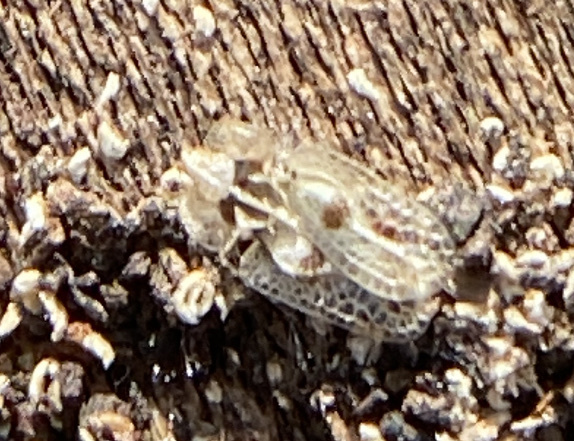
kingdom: Animalia
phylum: Arthropoda
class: Insecta
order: Hemiptera
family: Tingidae
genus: Corythucha
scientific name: Corythucha ciliata
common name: Sycamore lace bug
